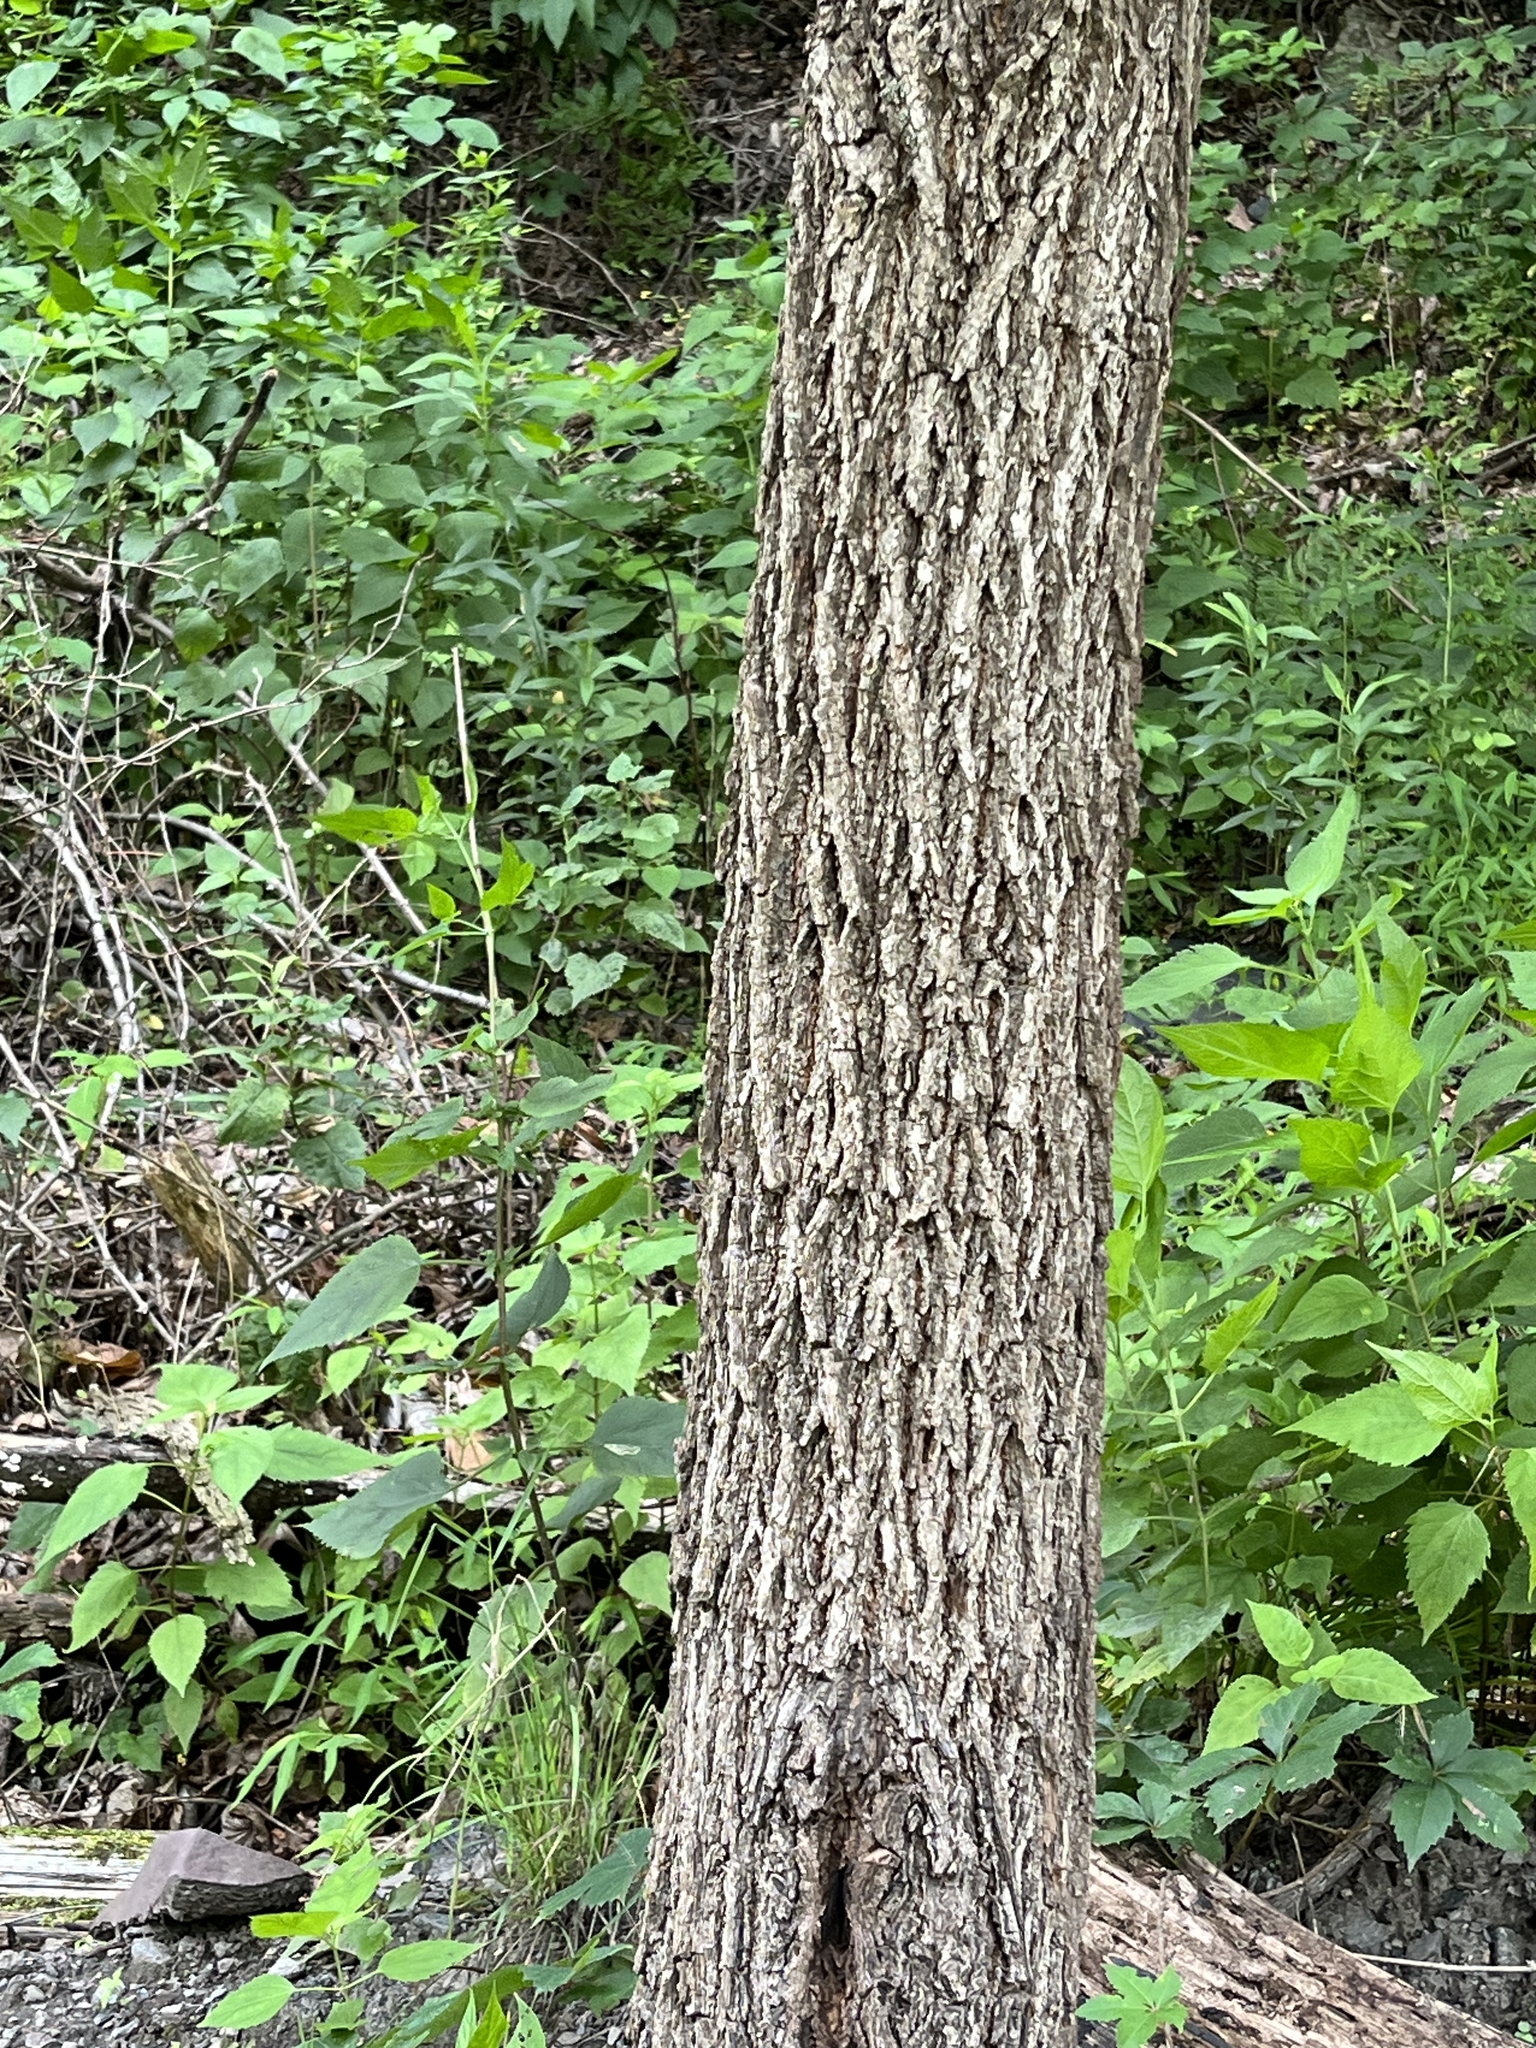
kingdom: Plantae
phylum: Tracheophyta
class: Magnoliopsida
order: Fagales
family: Juglandaceae
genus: Juglans
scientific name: Juglans nigra
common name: Black walnut
